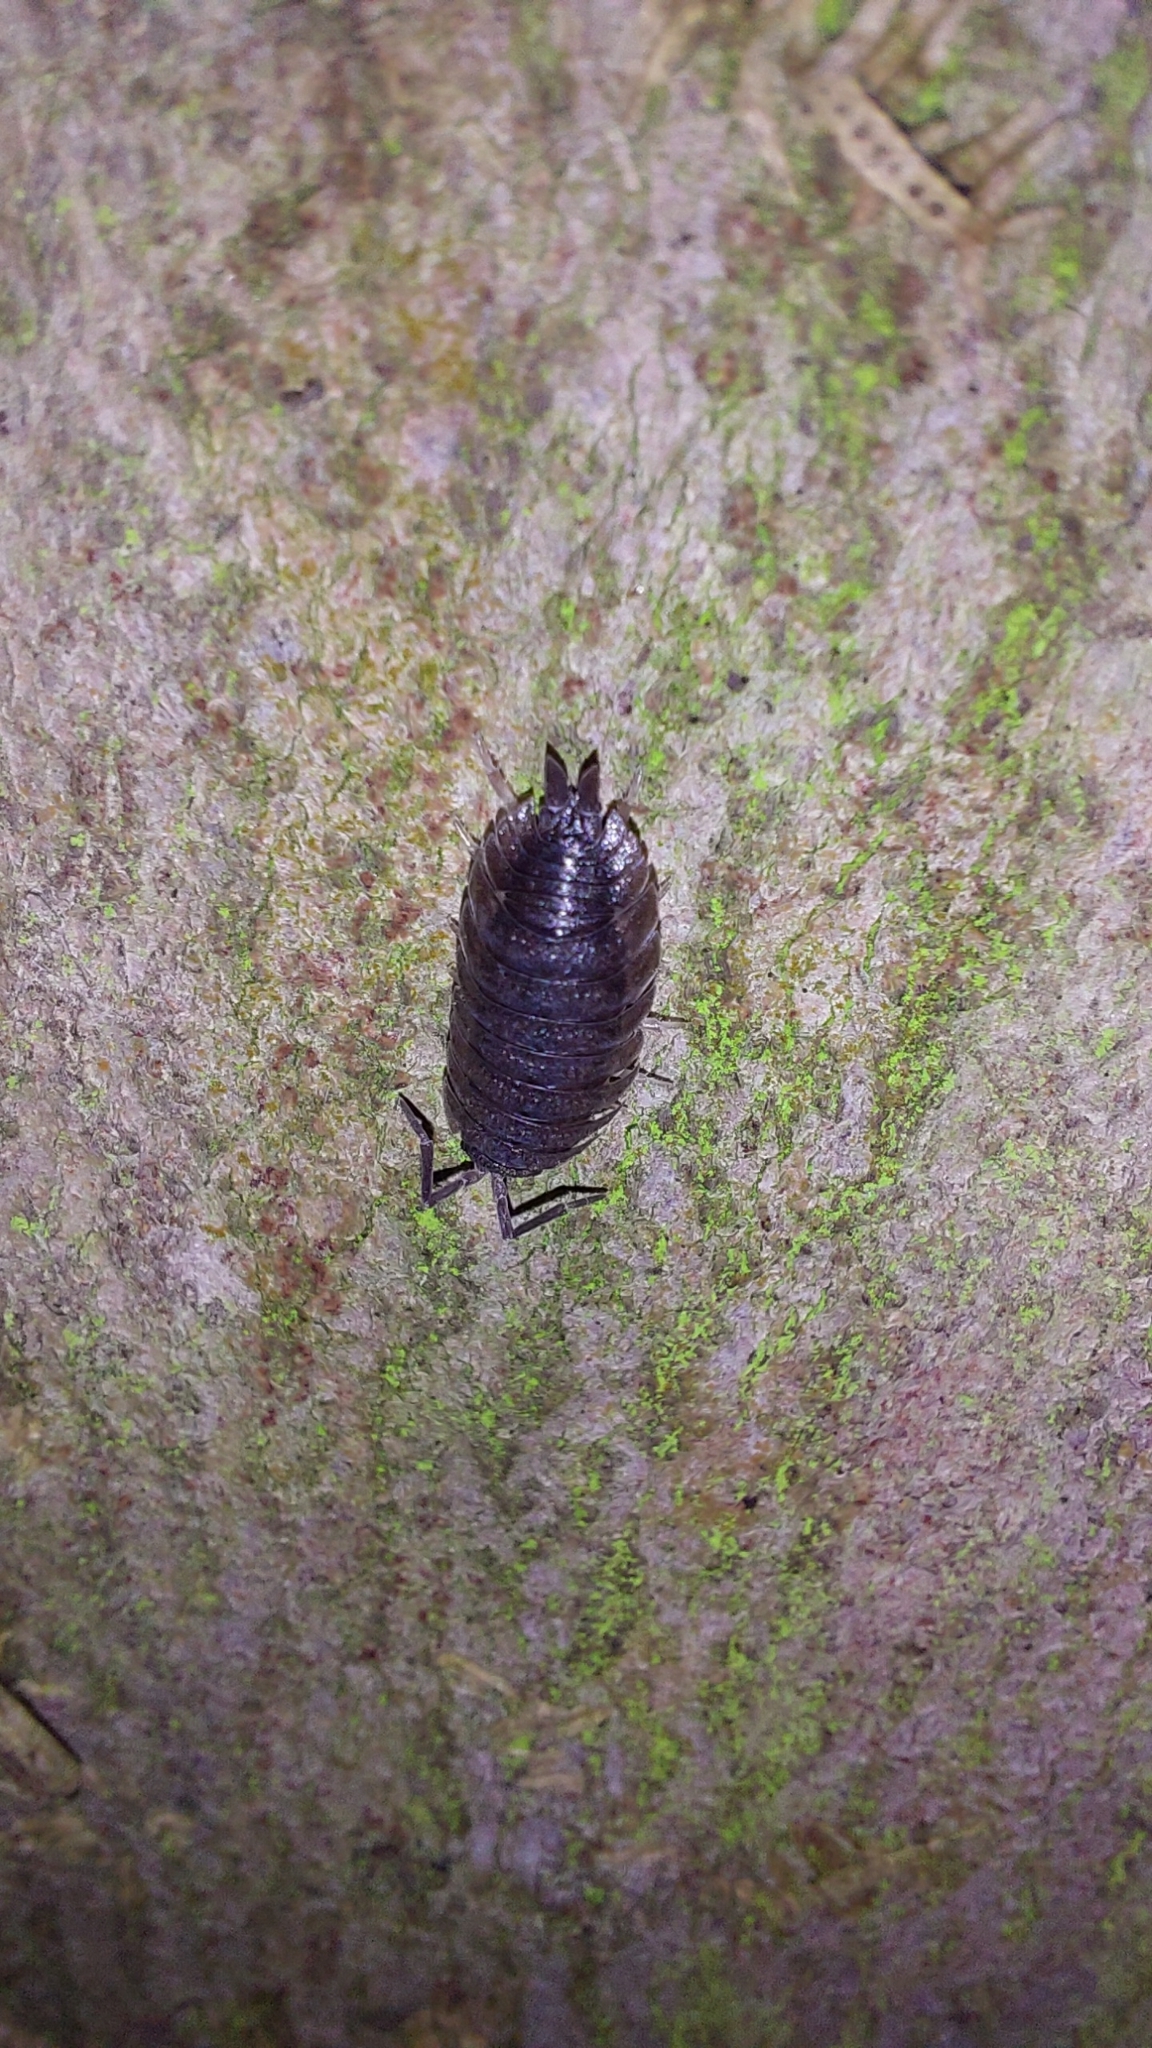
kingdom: Animalia
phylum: Arthropoda
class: Malacostraca
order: Isopoda
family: Porcellionidae
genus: Porcellio
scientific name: Porcellio scaber
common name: Common rough woodlouse
